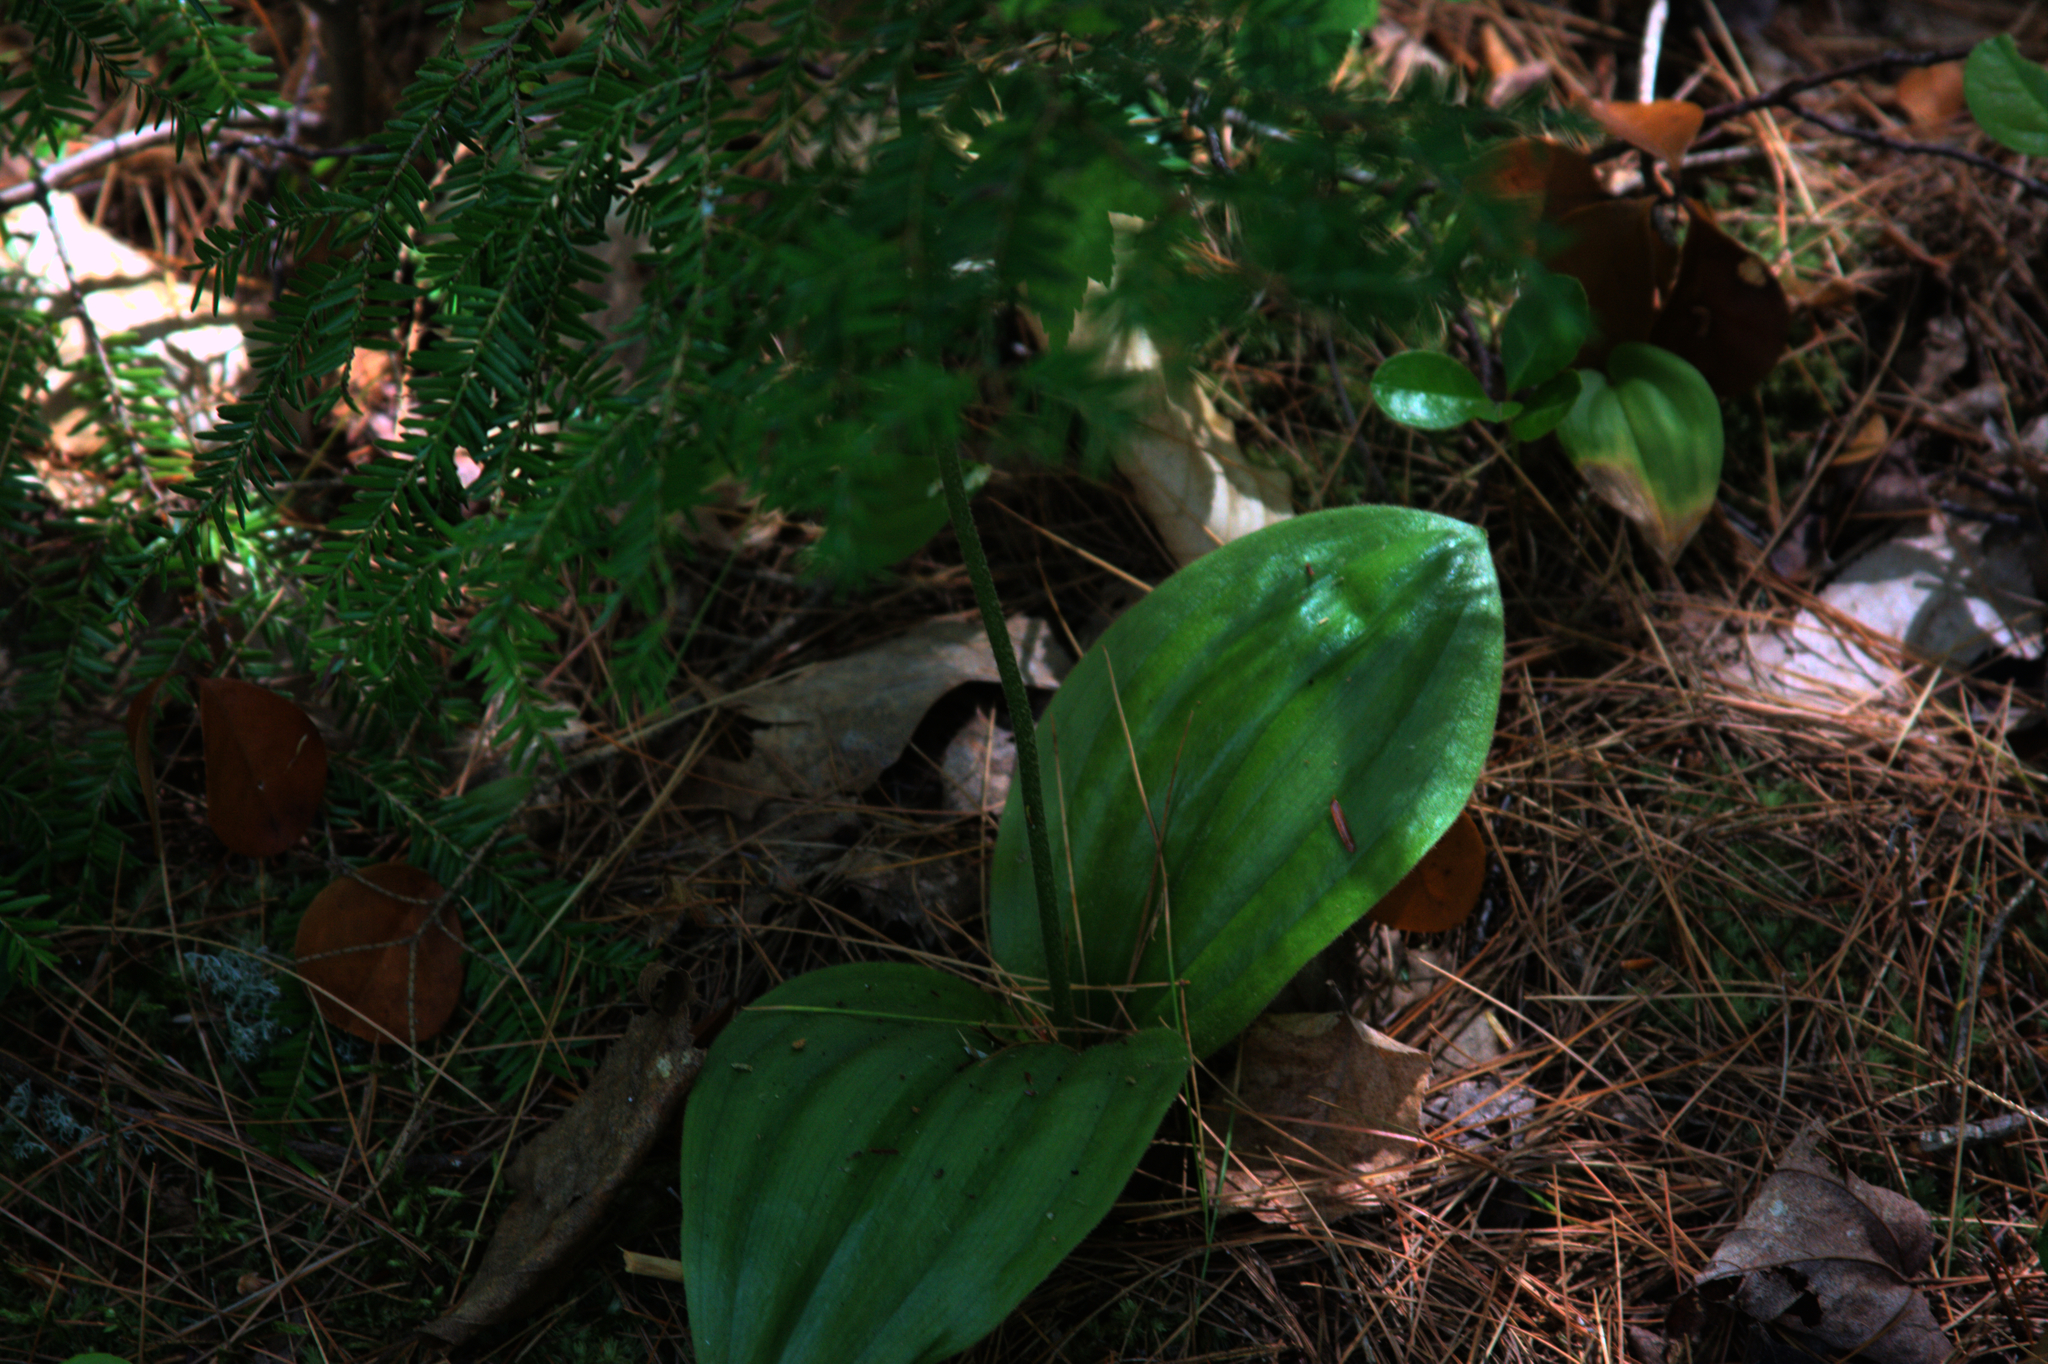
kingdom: Plantae
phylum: Tracheophyta
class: Pinopsida
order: Pinales
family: Pinaceae
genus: Tsuga
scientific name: Tsuga canadensis
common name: Eastern hemlock
